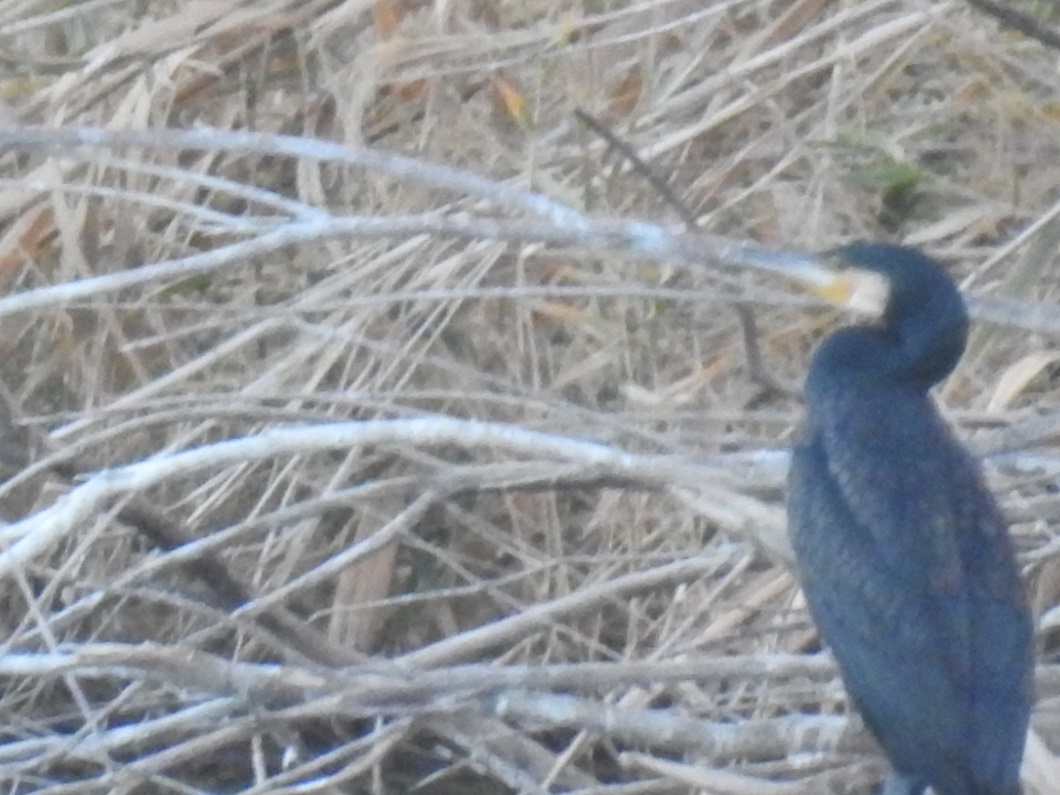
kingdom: Animalia
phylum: Chordata
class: Aves
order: Suliformes
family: Phalacrocoracidae
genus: Phalacrocorax
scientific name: Phalacrocorax carbo
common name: Great cormorant
